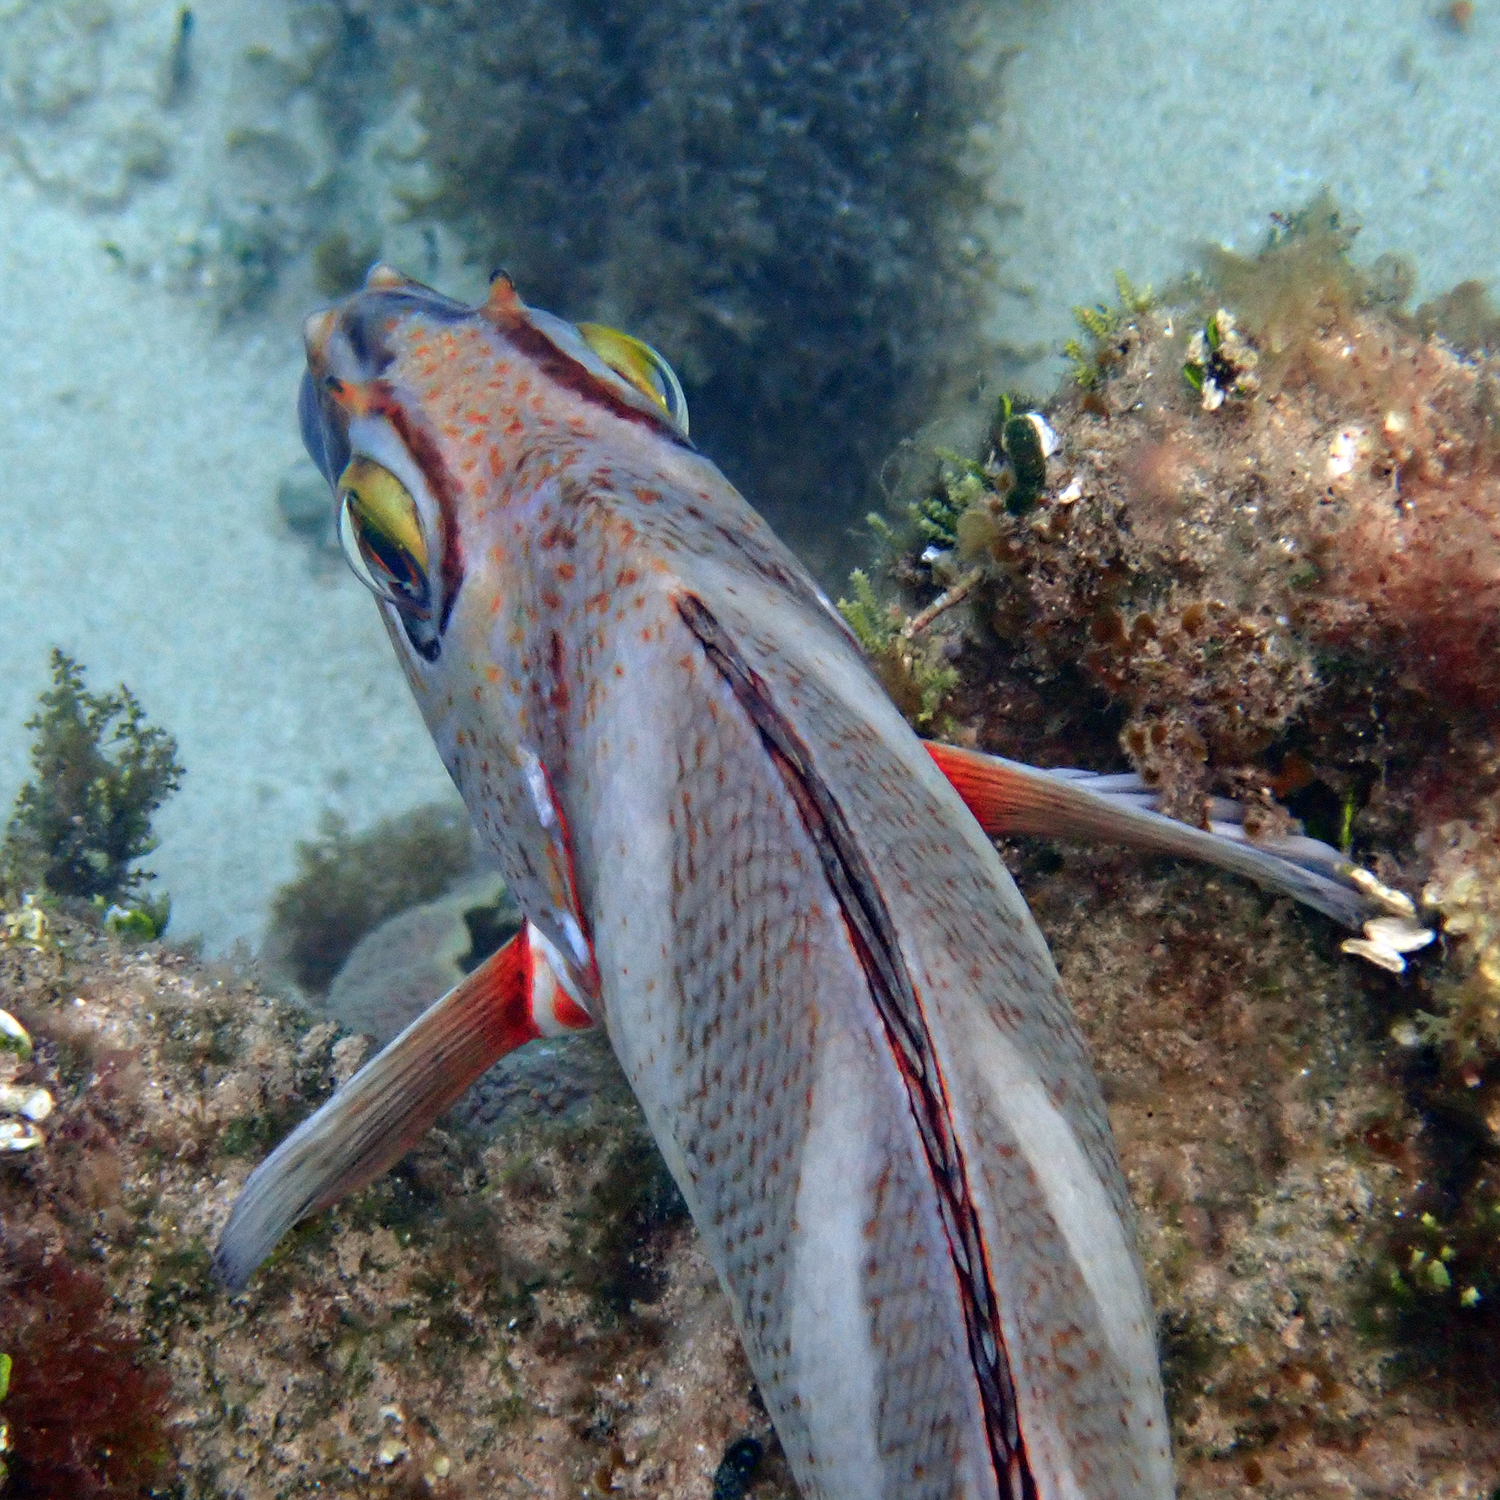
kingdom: Animalia
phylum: Chordata
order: Perciformes
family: Latridae
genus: Morwong
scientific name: Morwong ephippium
